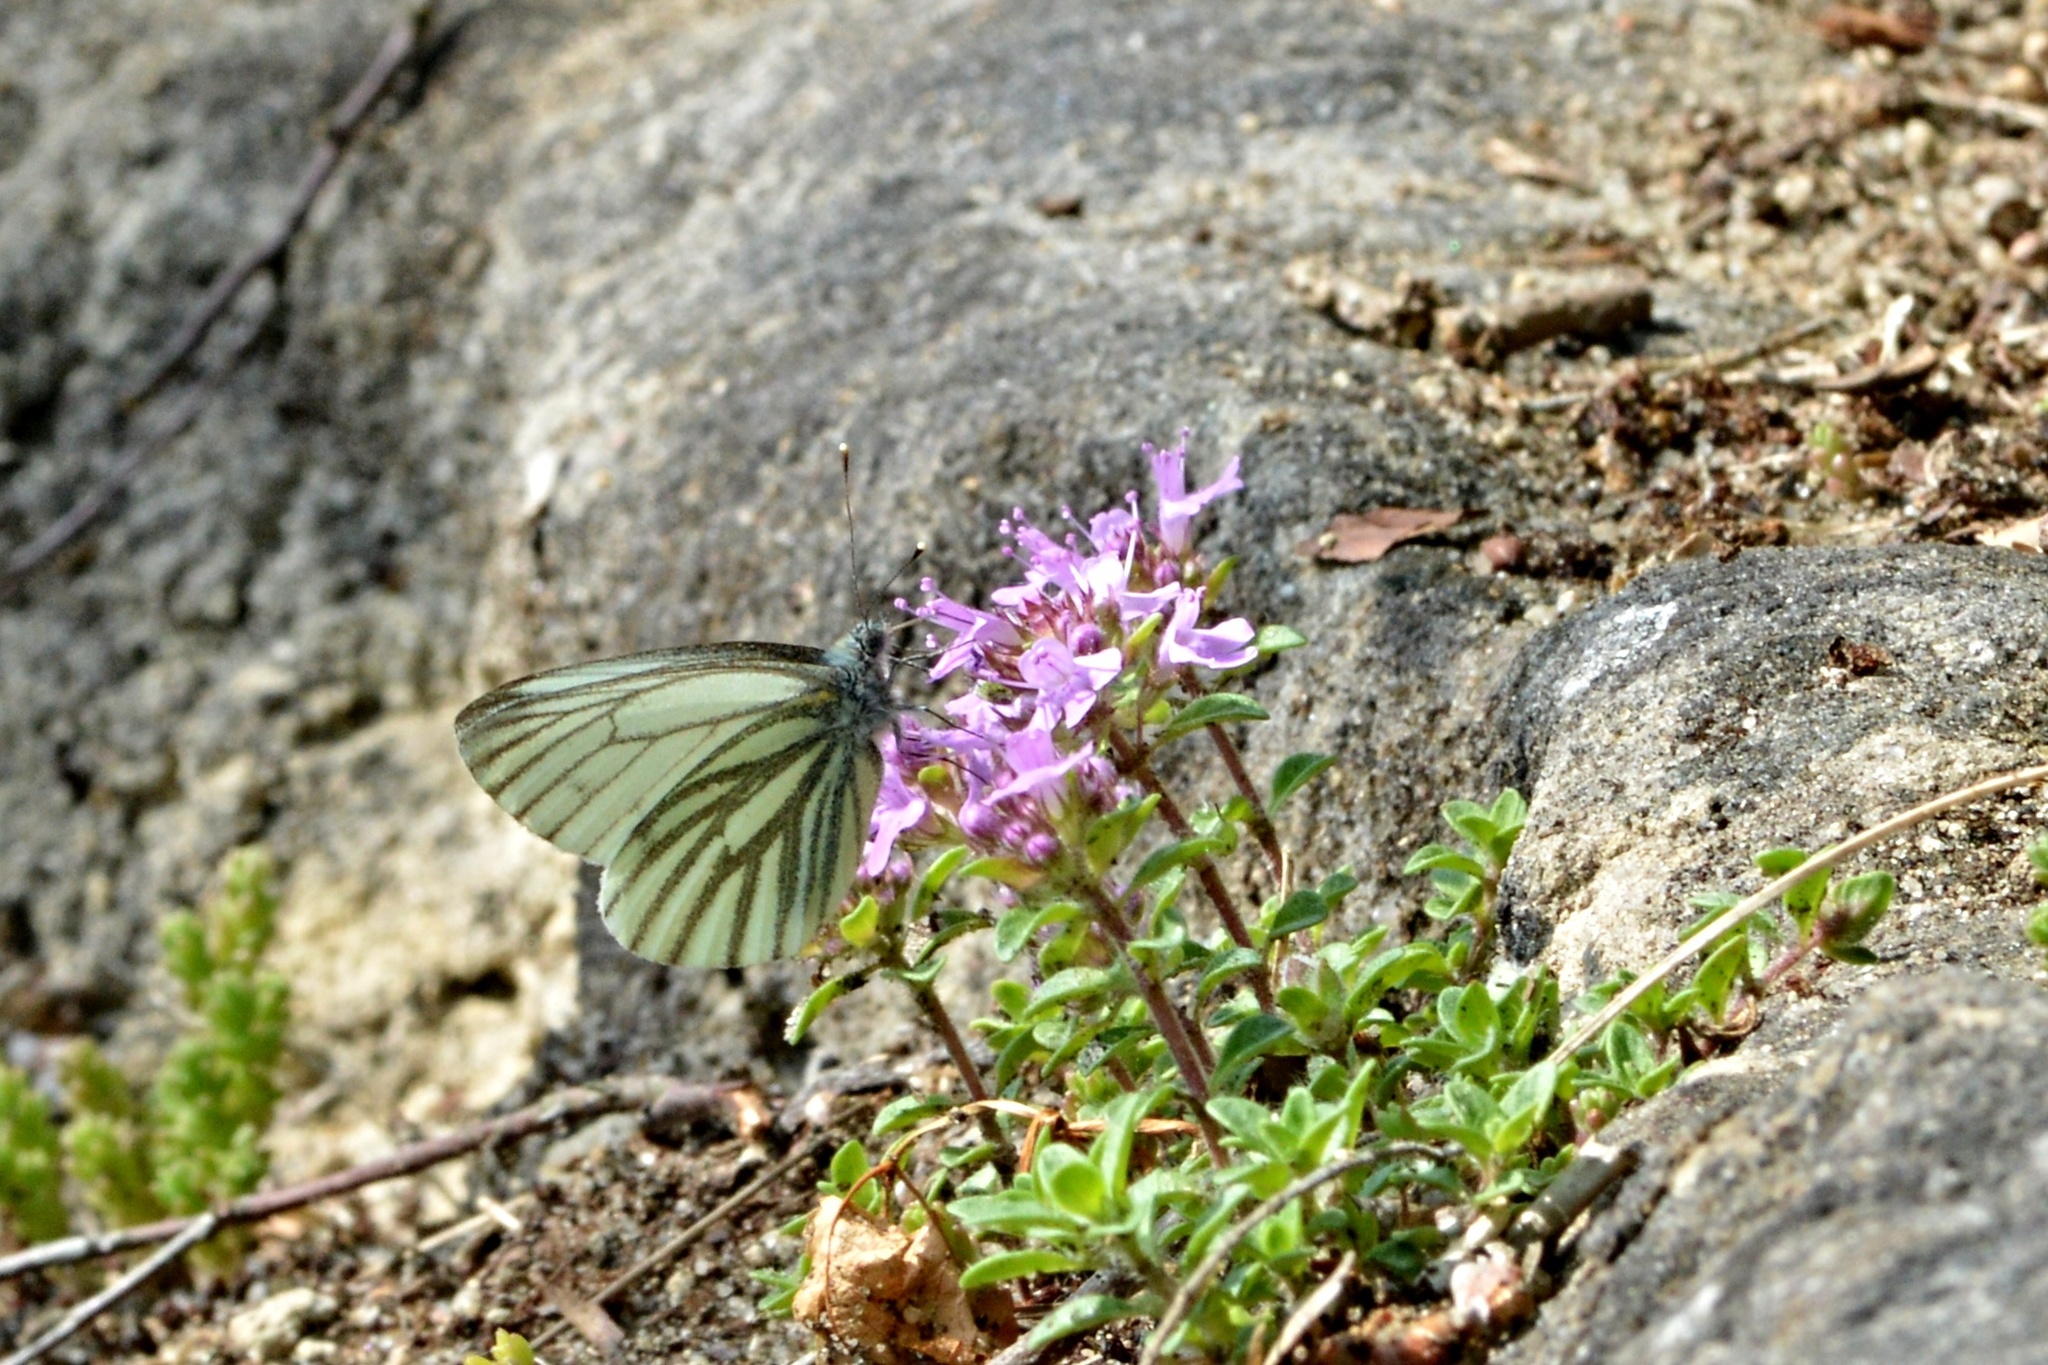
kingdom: Animalia
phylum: Arthropoda
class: Insecta
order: Lepidoptera
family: Pieridae
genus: Pieris
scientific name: Pieris napi
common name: Green-veined white
